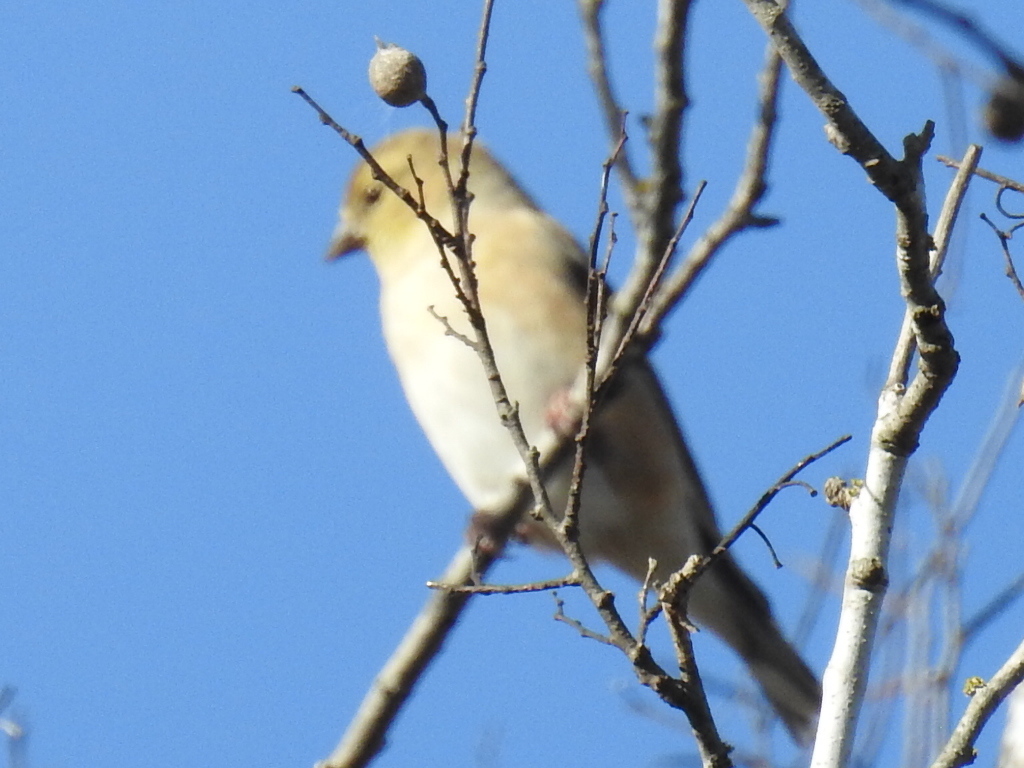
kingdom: Animalia
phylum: Chordata
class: Aves
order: Passeriformes
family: Fringillidae
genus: Spinus
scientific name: Spinus tristis
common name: American goldfinch
